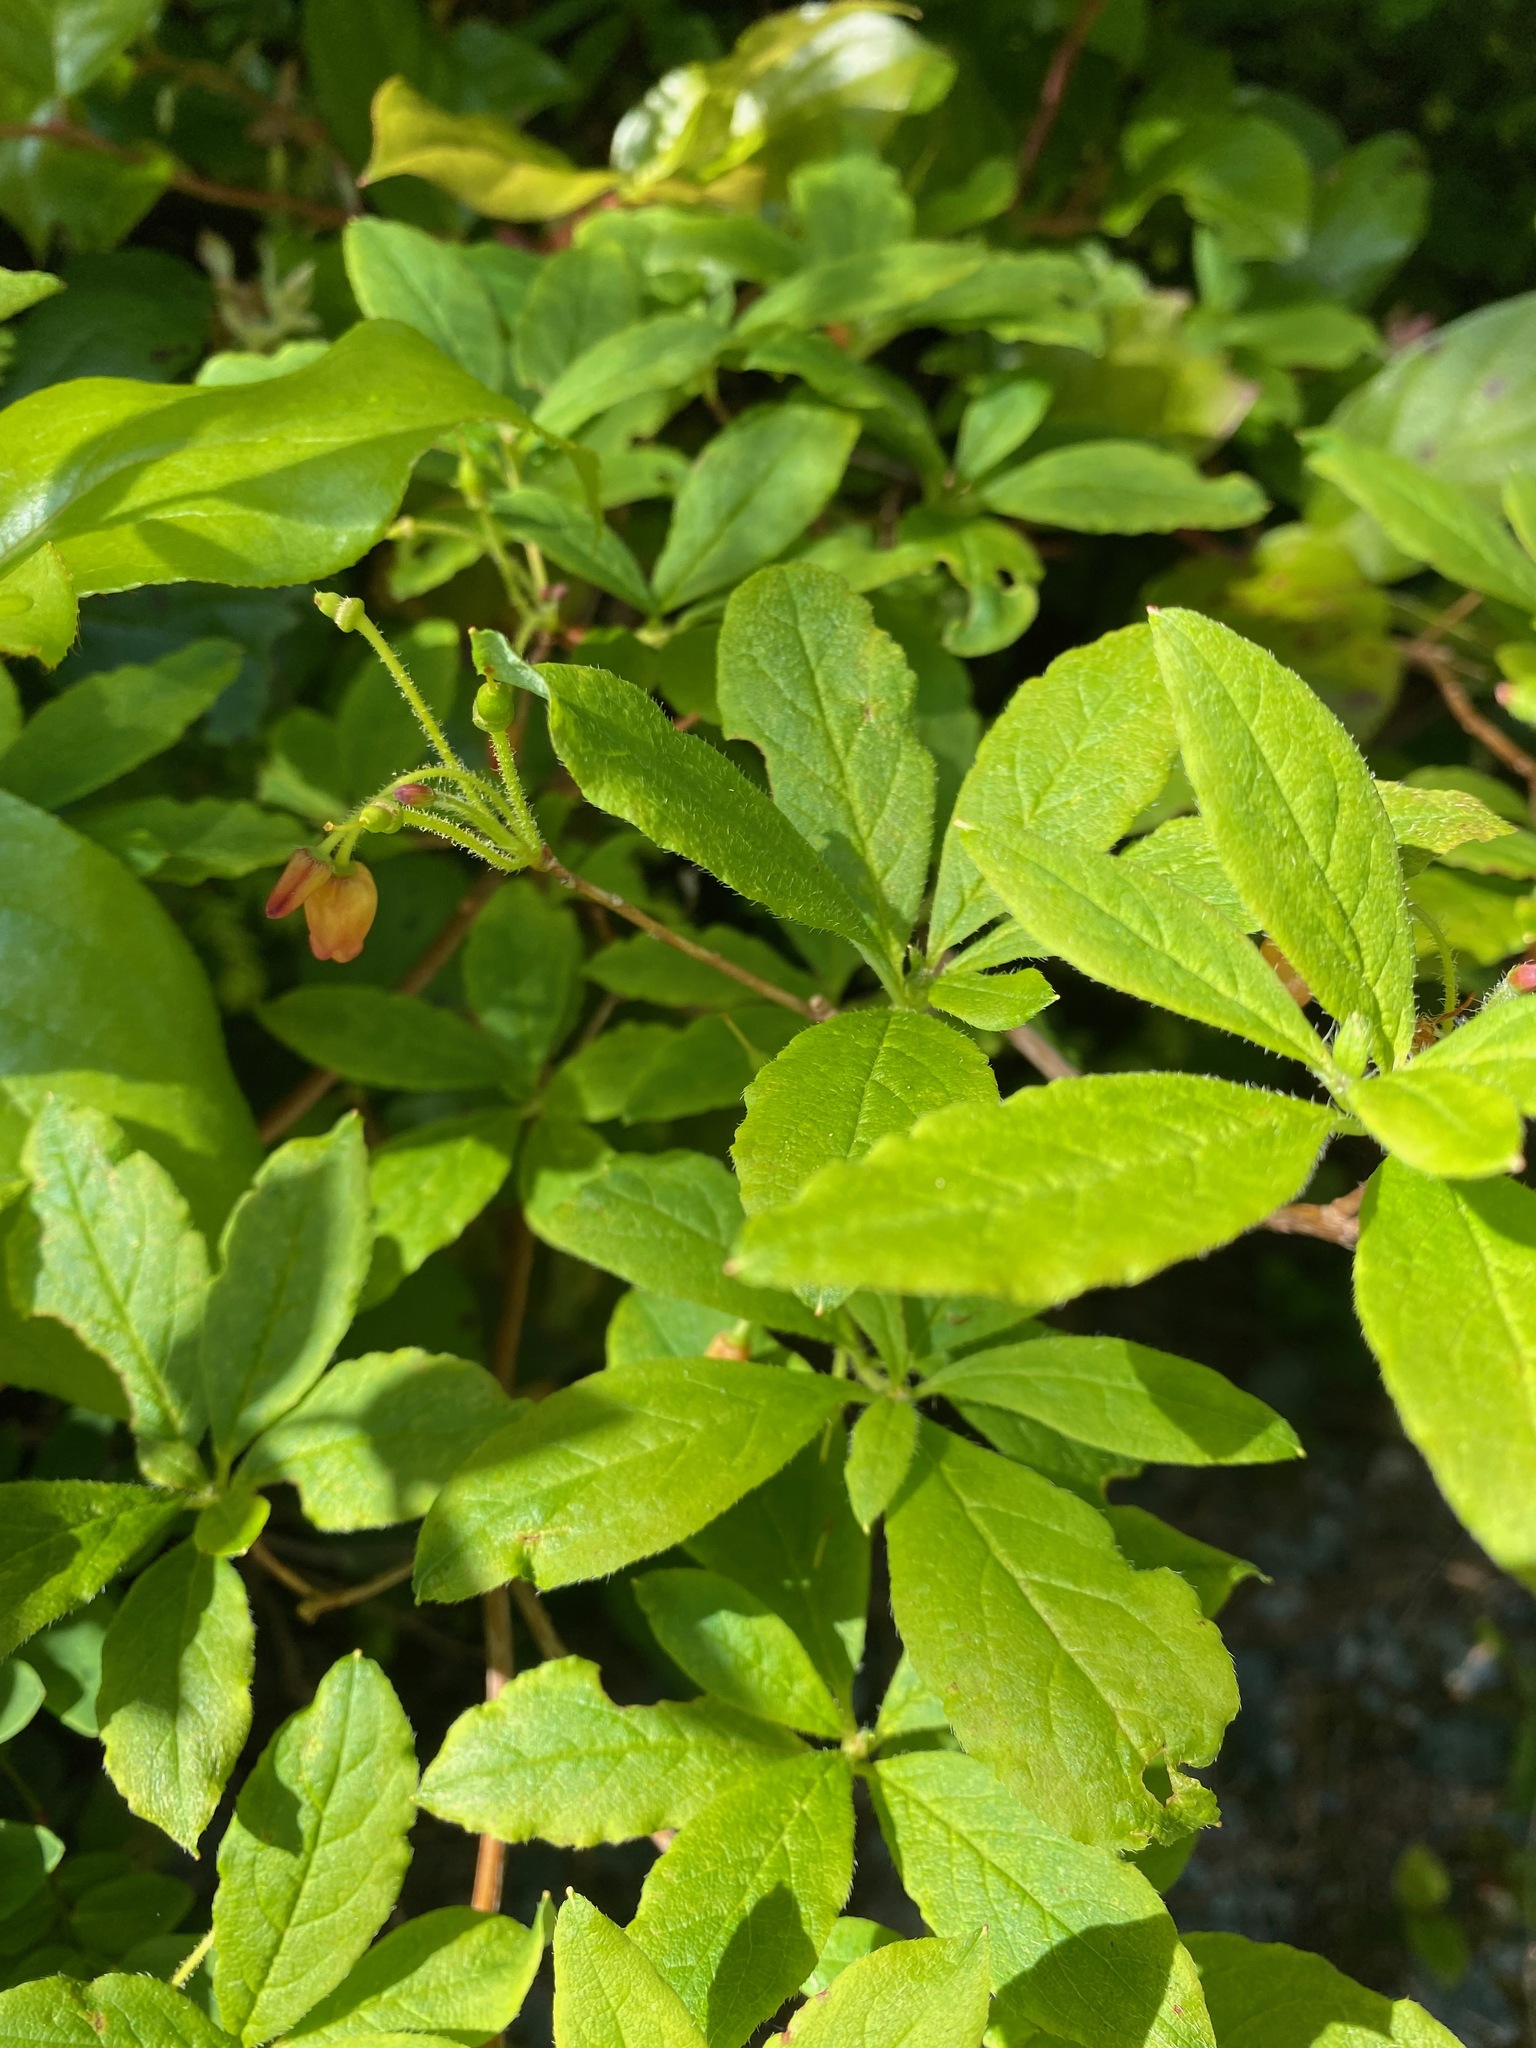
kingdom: Plantae
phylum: Tracheophyta
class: Magnoliopsida
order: Ericales
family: Ericaceae
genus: Rhododendron
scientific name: Rhododendron menziesii
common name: Pacific menziesia
